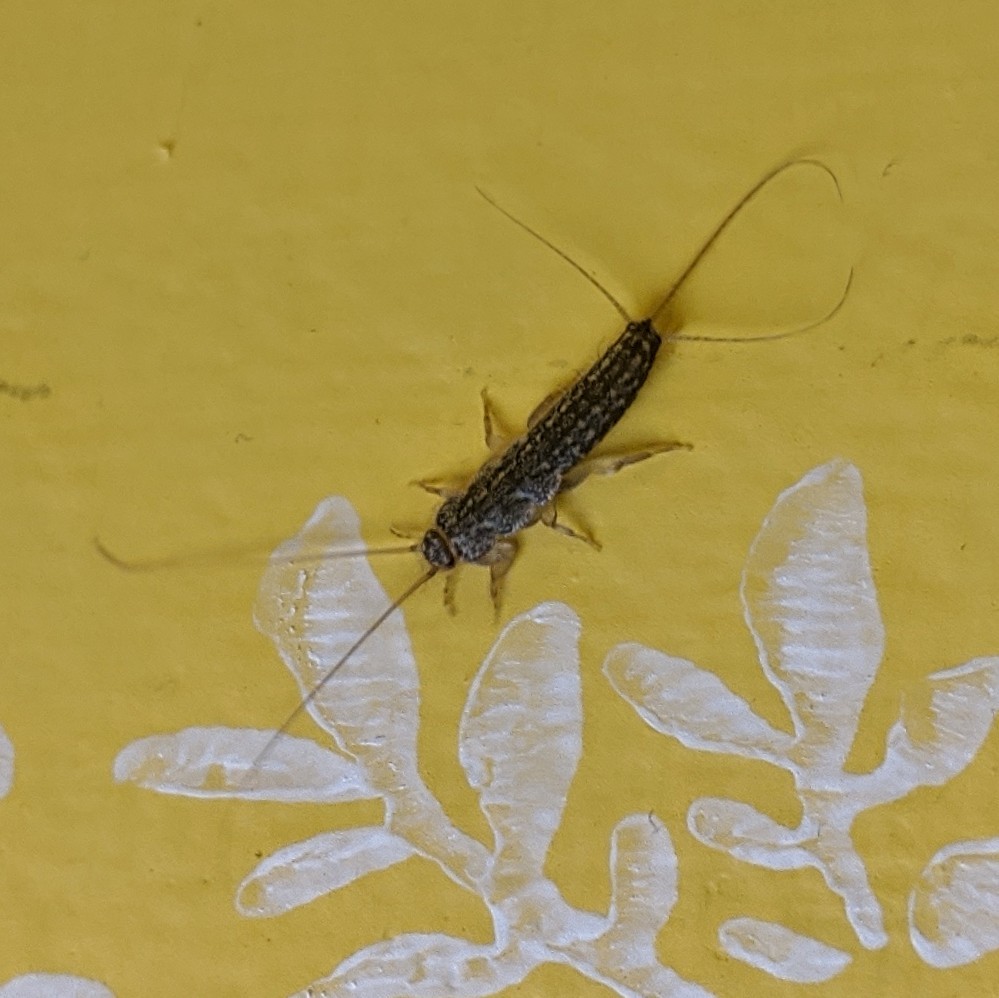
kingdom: Animalia
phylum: Arthropoda
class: Insecta
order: Zygentoma
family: Lepismatidae
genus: Ctenolepisma
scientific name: Ctenolepisma lineata
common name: Four-lined silverfish
